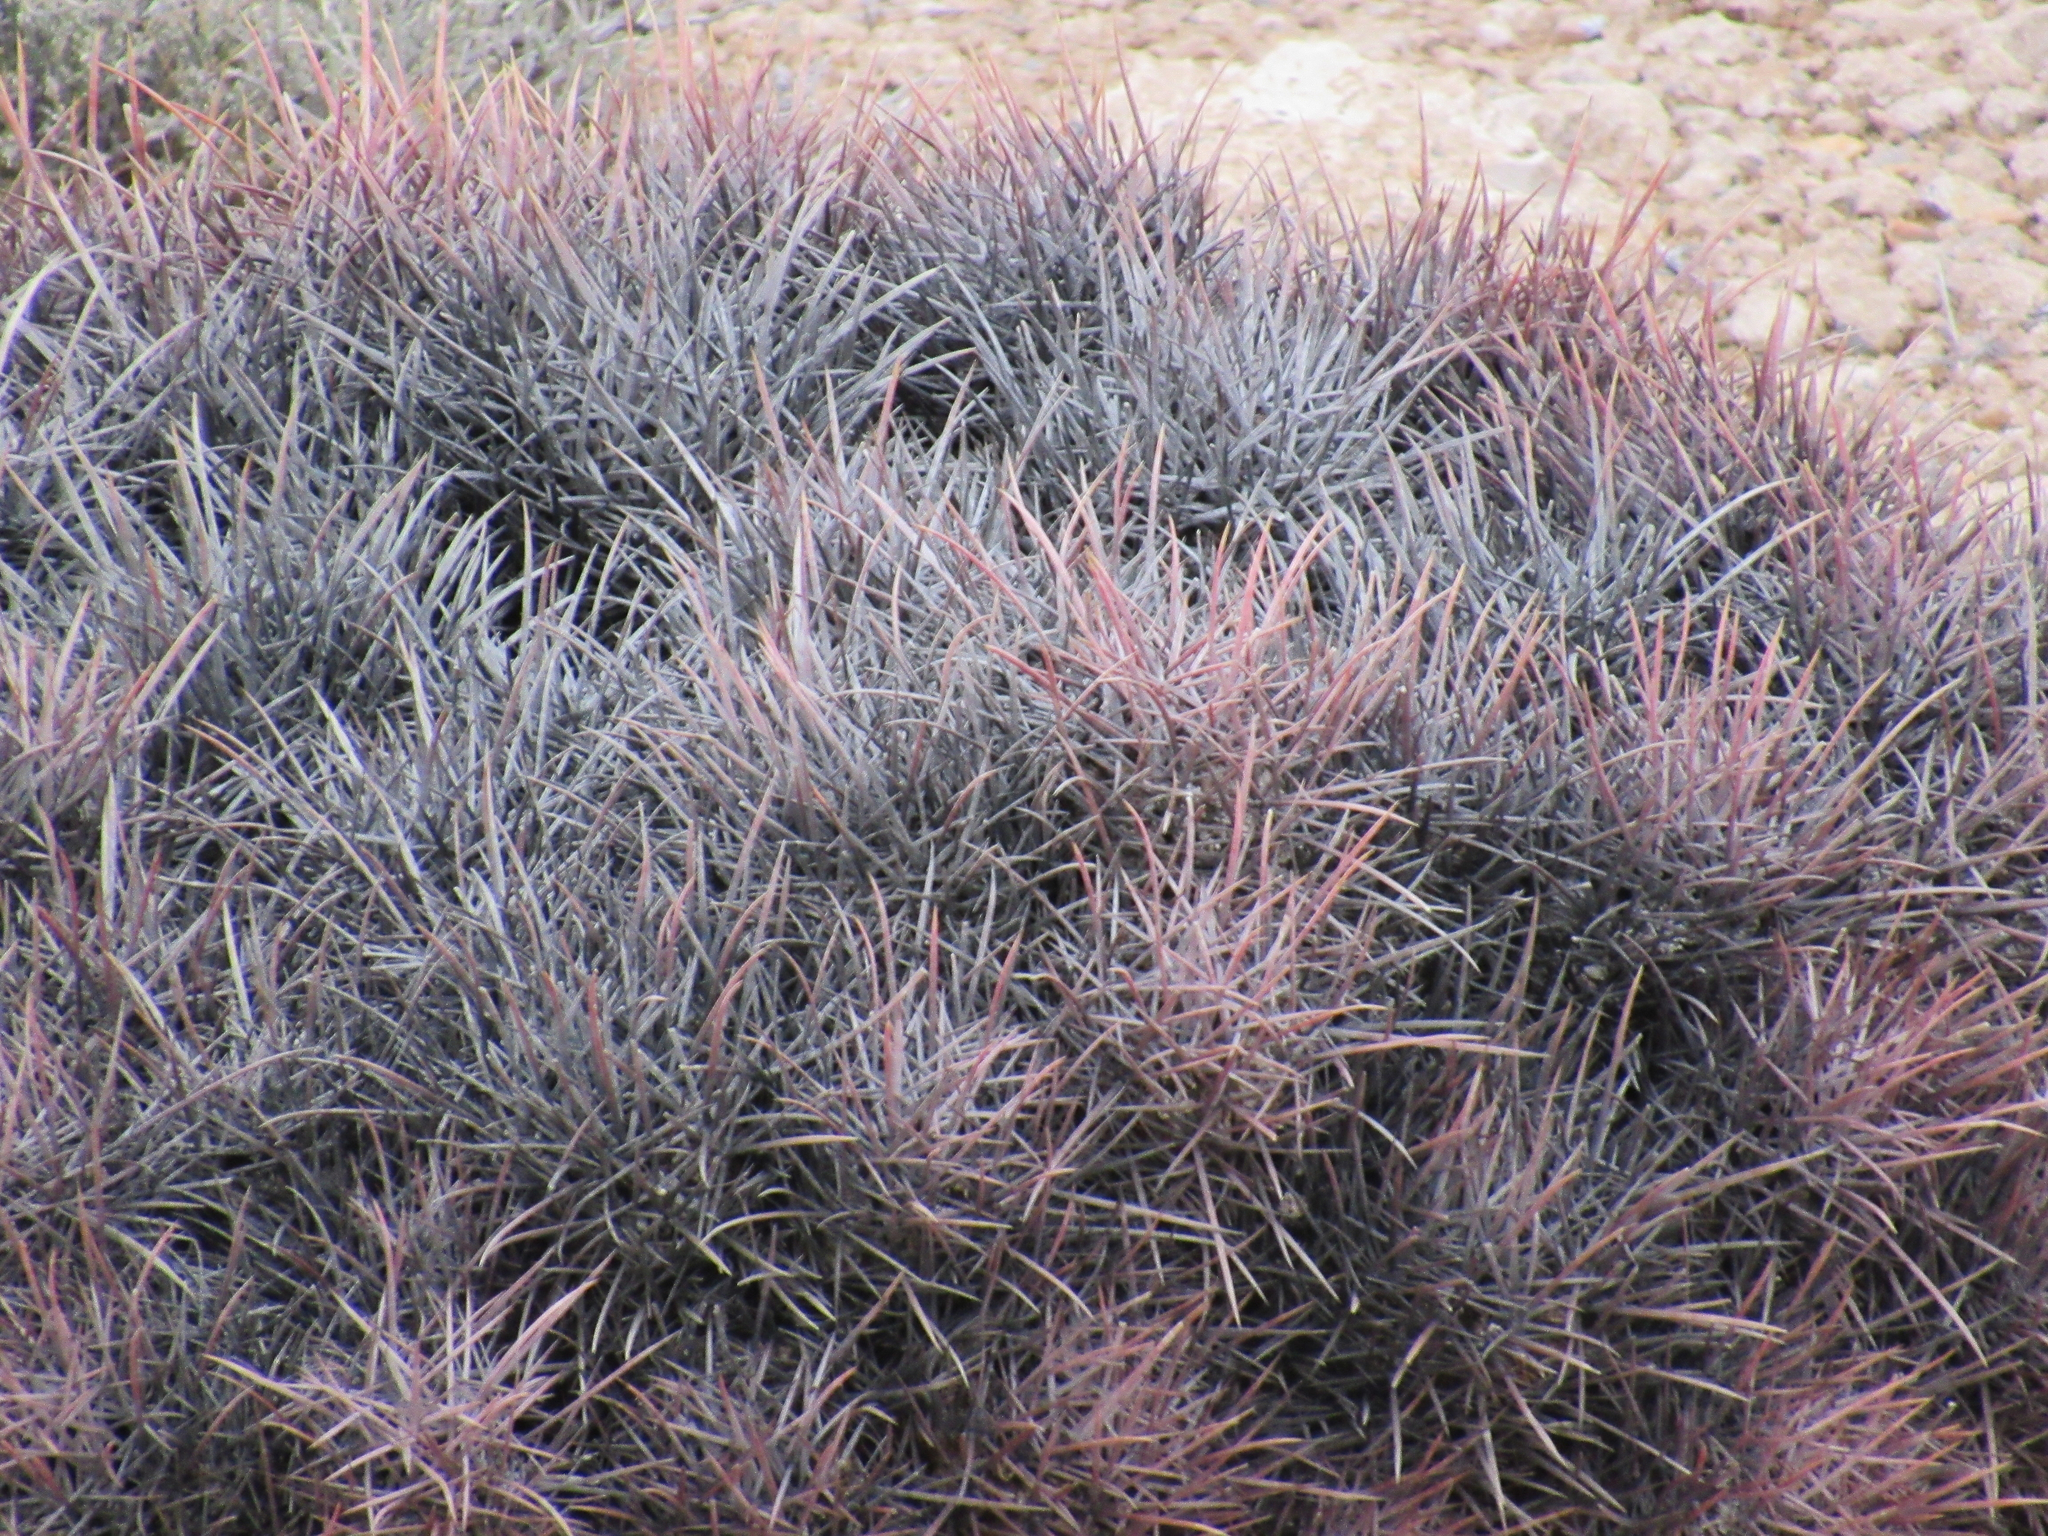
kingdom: Plantae
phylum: Tracheophyta
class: Magnoliopsida
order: Caryophyllales
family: Cactaceae
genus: Echinocactus
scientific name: Echinocactus polycephalus
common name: Cottontop cactus
